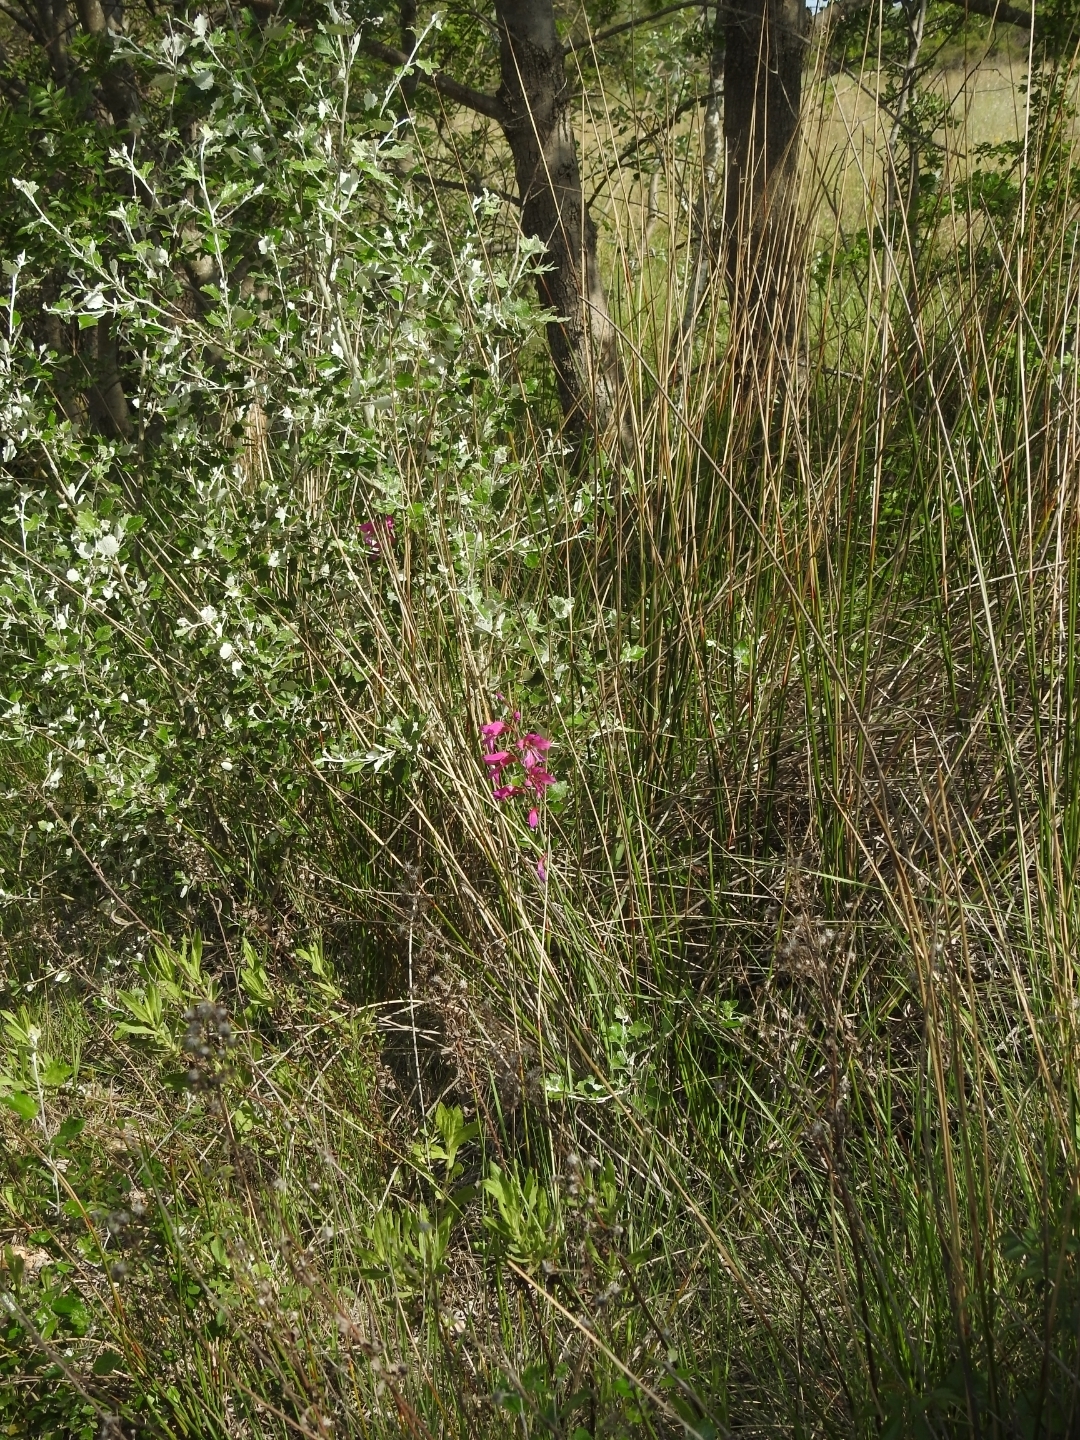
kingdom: Plantae
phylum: Tracheophyta
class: Liliopsida
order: Asparagales
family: Iridaceae
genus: Gladiolus
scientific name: Gladiolus dubius
